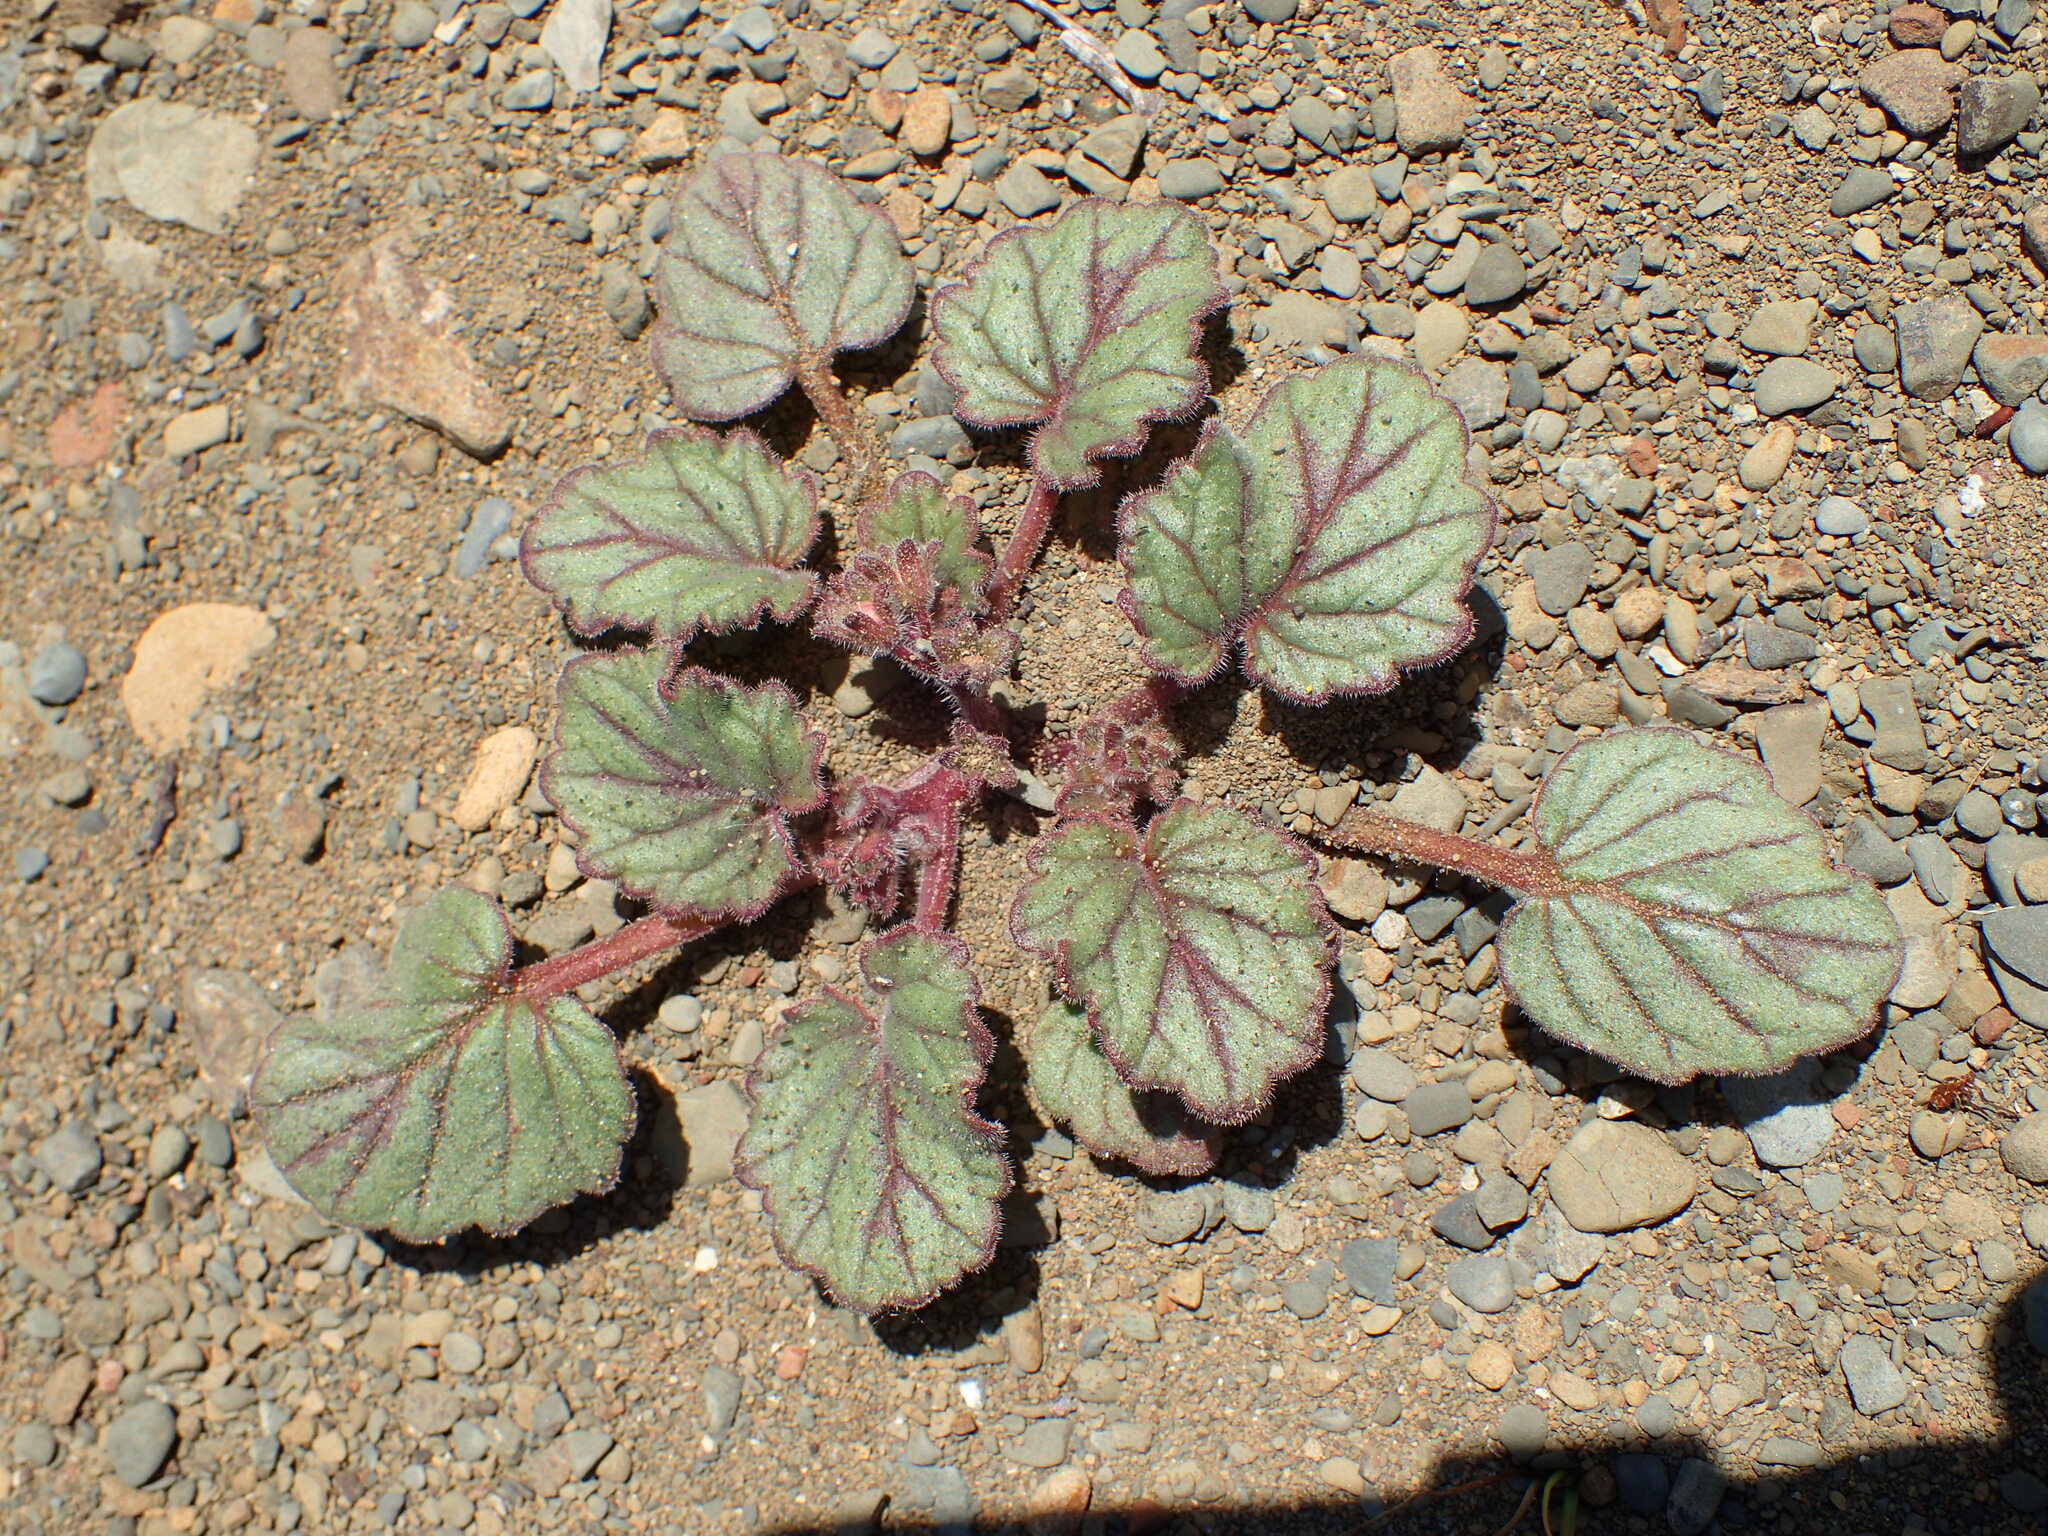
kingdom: Plantae
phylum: Tracheophyta
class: Magnoliopsida
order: Boraginales
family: Hydrophyllaceae
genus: Phacelia
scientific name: Phacelia longipes
